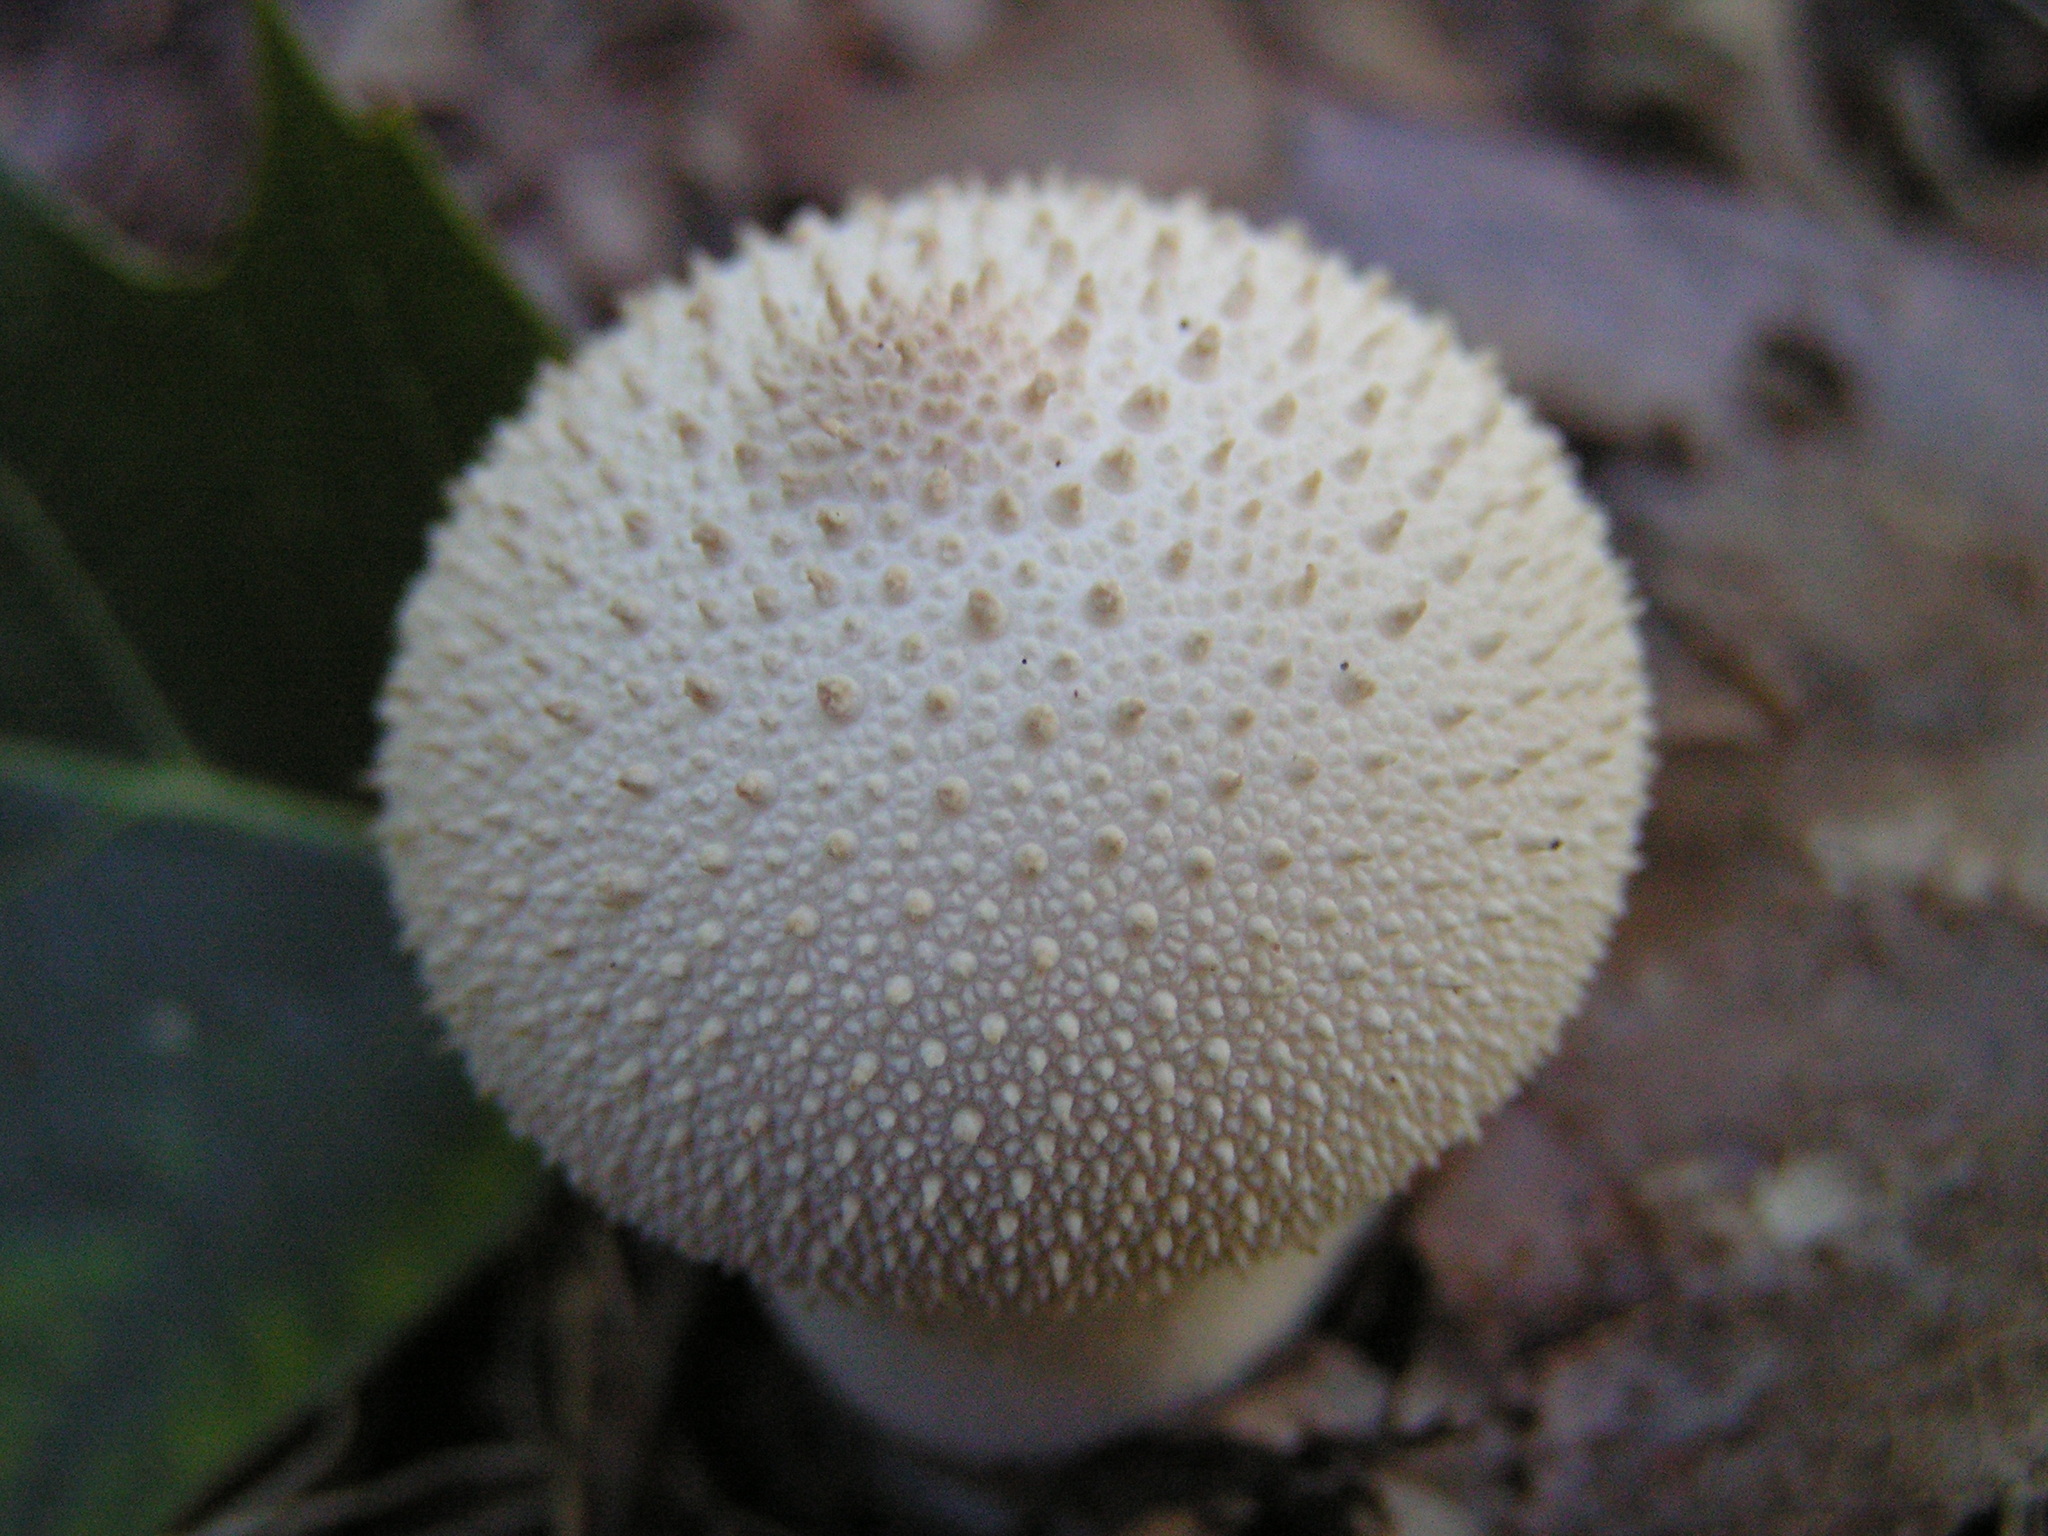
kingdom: Fungi
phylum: Basidiomycota
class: Agaricomycetes
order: Agaricales
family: Lycoperdaceae
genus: Lycoperdon
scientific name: Lycoperdon perlatum
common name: Common puffball
